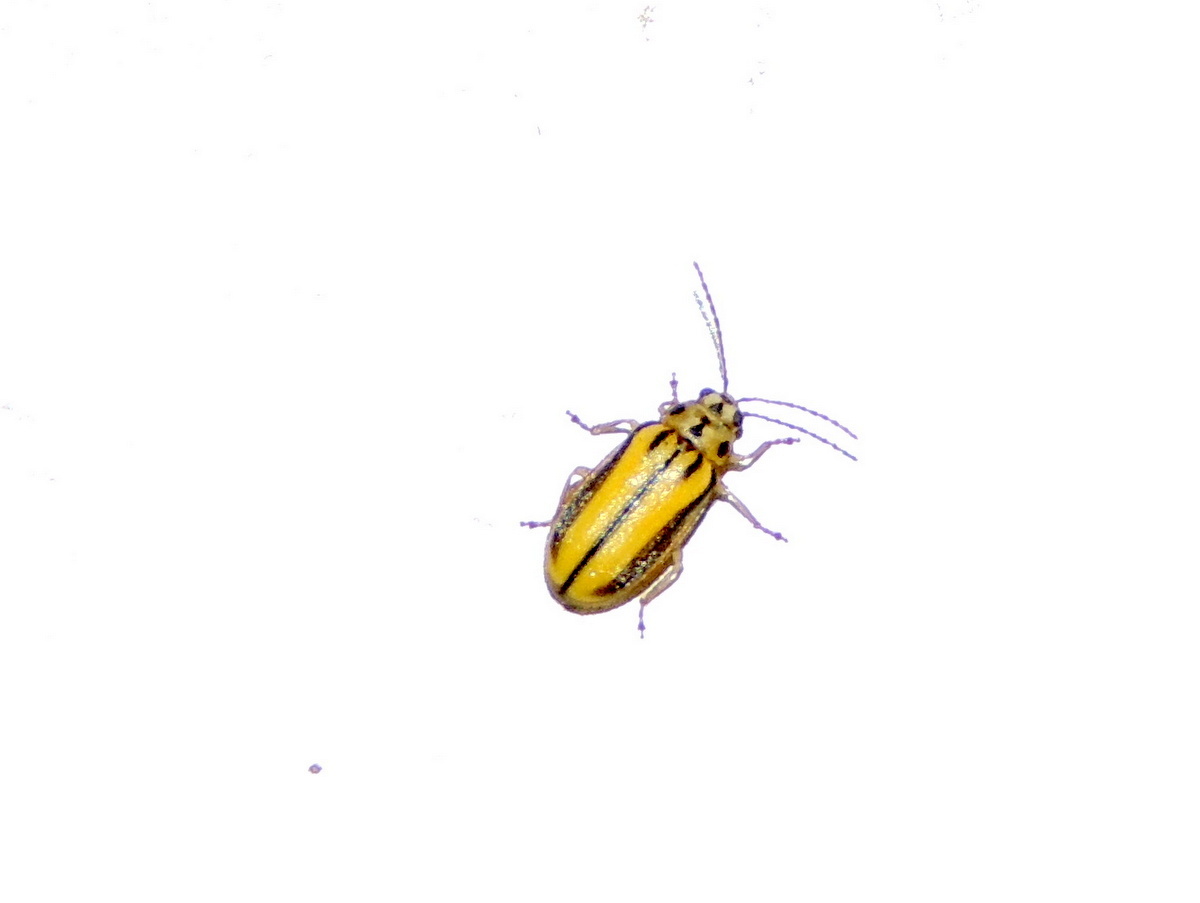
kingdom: Animalia
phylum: Arthropoda
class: Insecta
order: Coleoptera
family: Chrysomelidae
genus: Xanthogaleruca
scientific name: Xanthogaleruca luteola
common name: Elm leaf beetle
